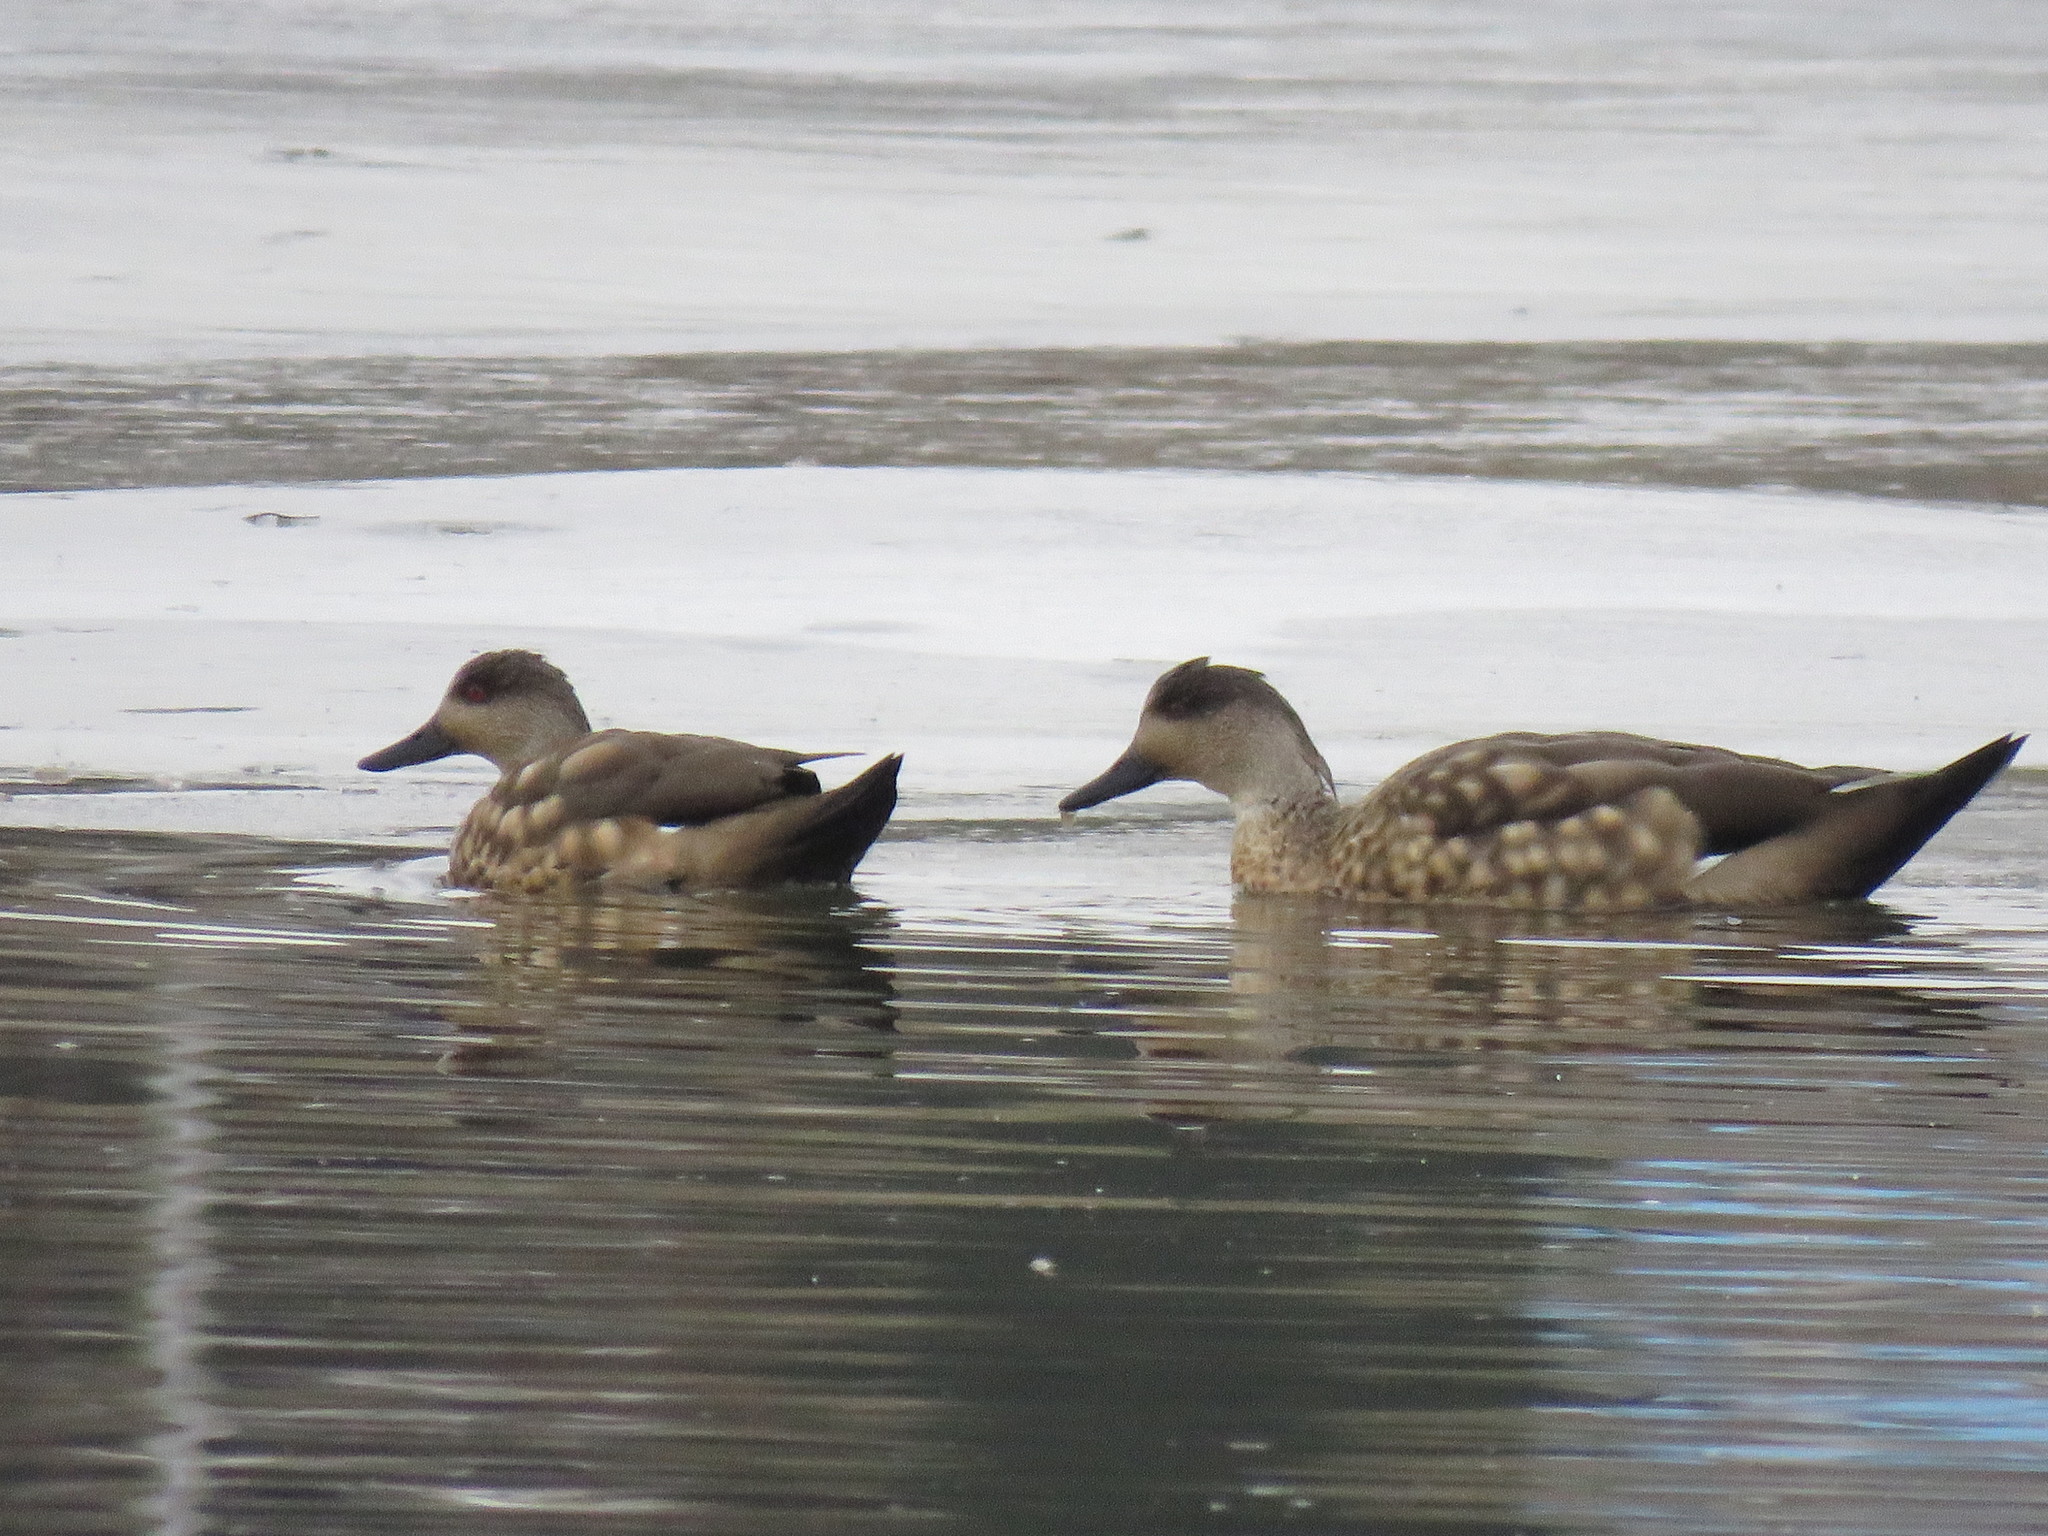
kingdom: Animalia
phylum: Chordata
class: Aves
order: Anseriformes
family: Anatidae
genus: Lophonetta
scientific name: Lophonetta specularioides
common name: Crested duck
